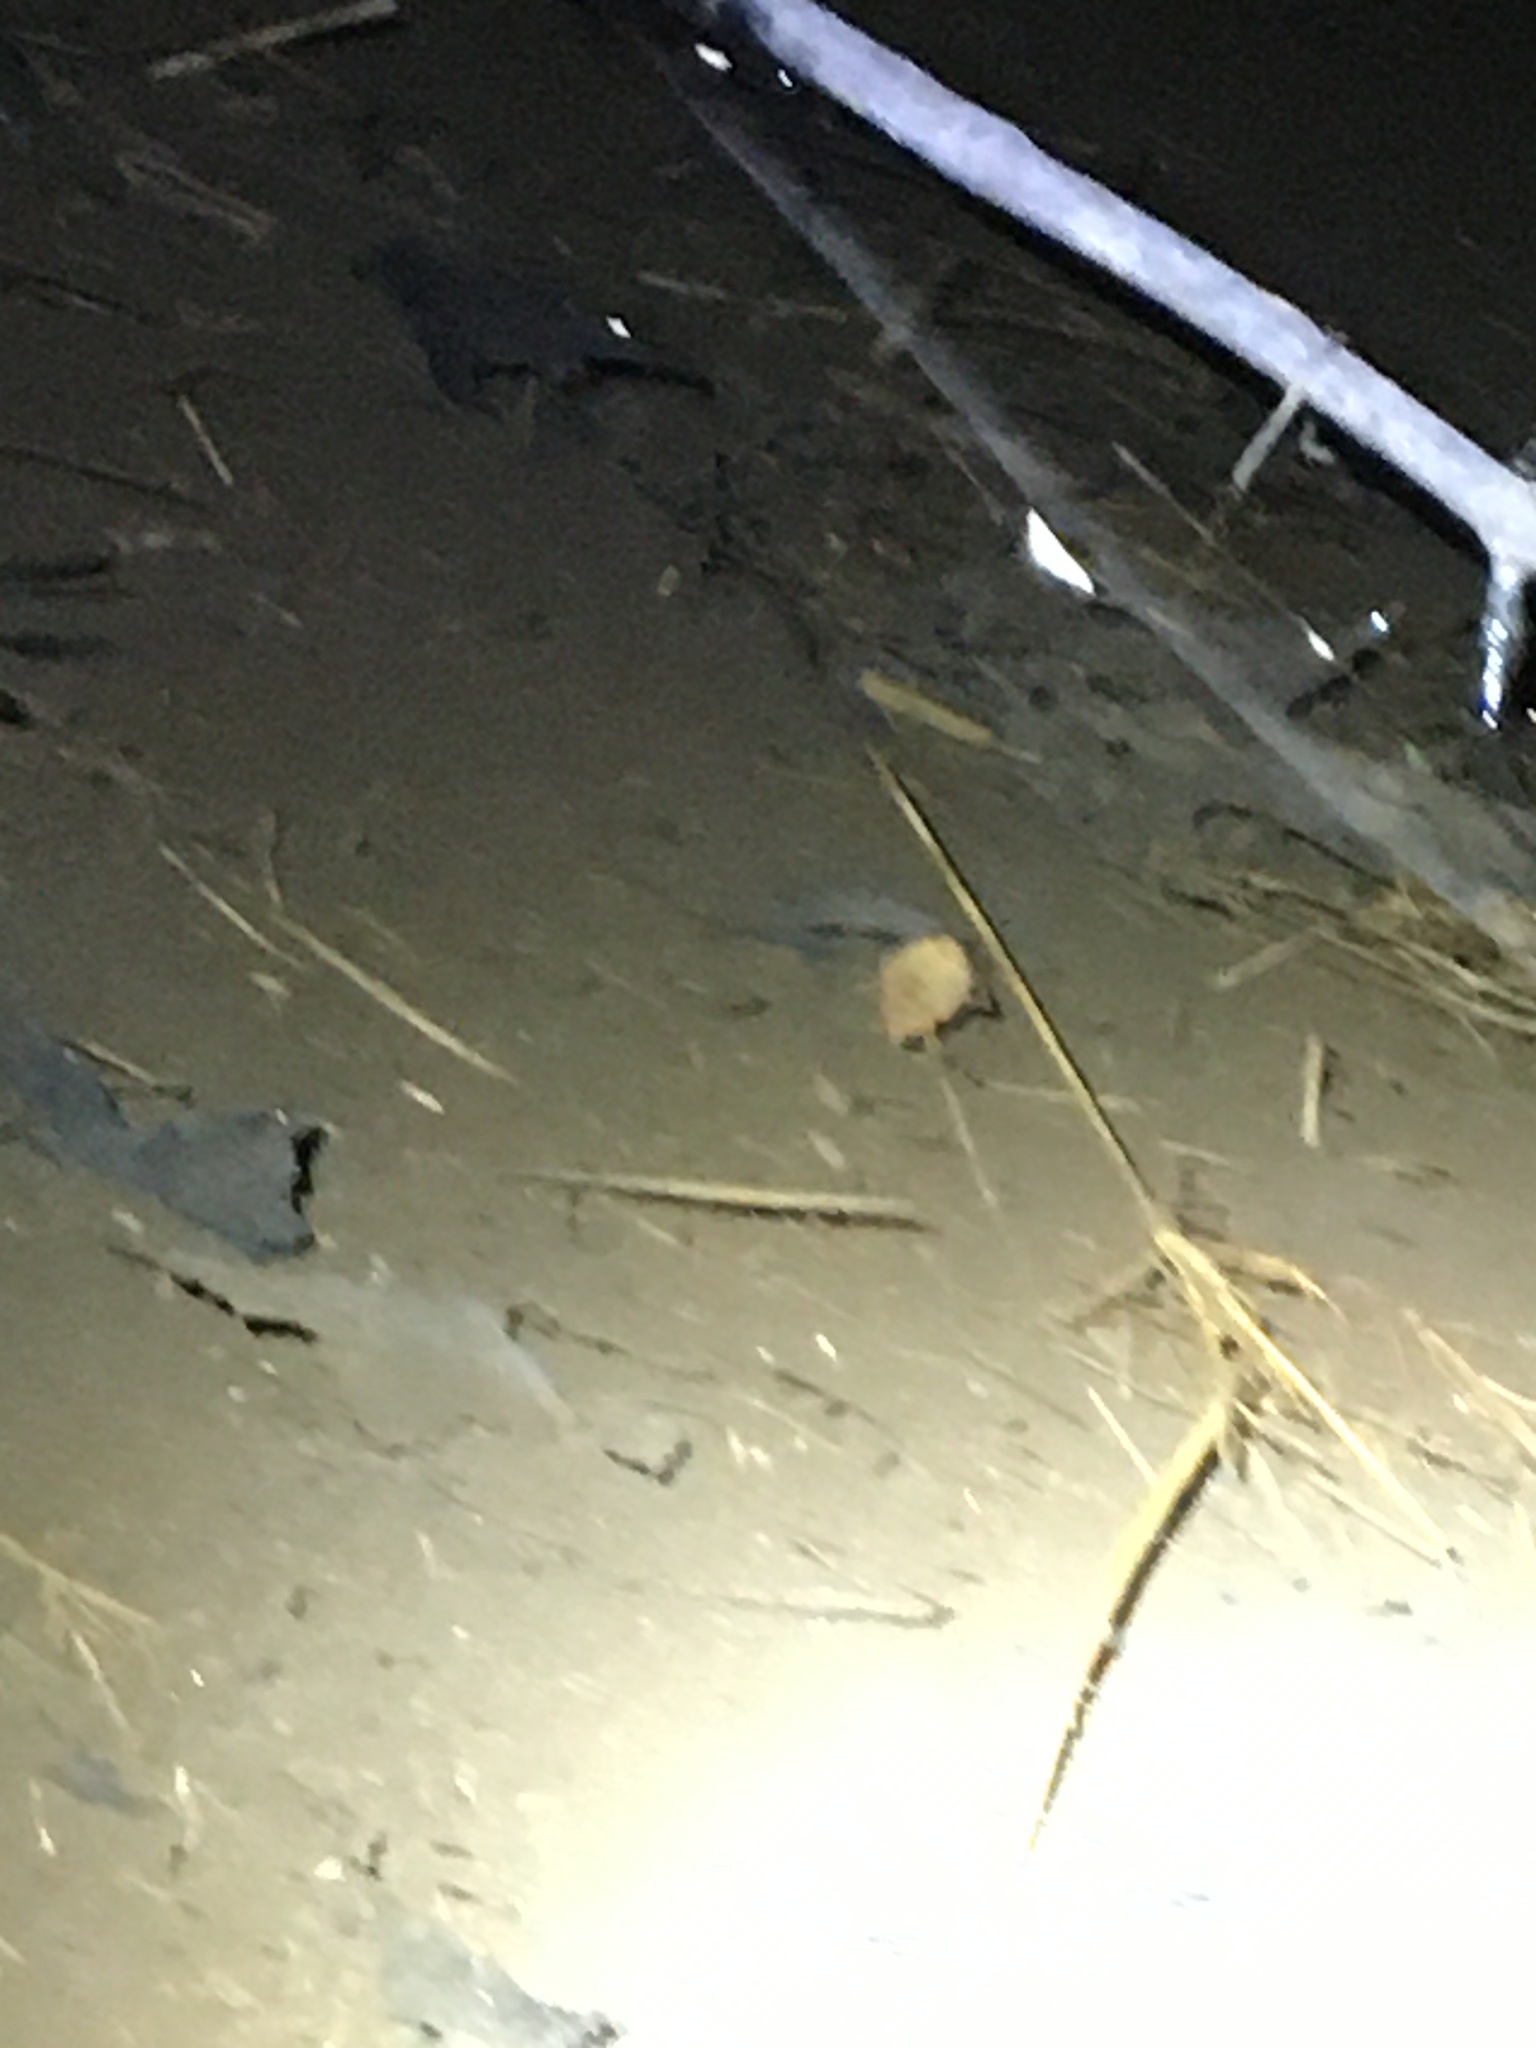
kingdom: Animalia
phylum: Arthropoda
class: Insecta
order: Hemiptera
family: Belostomatidae
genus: Belostoma
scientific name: Belostoma
